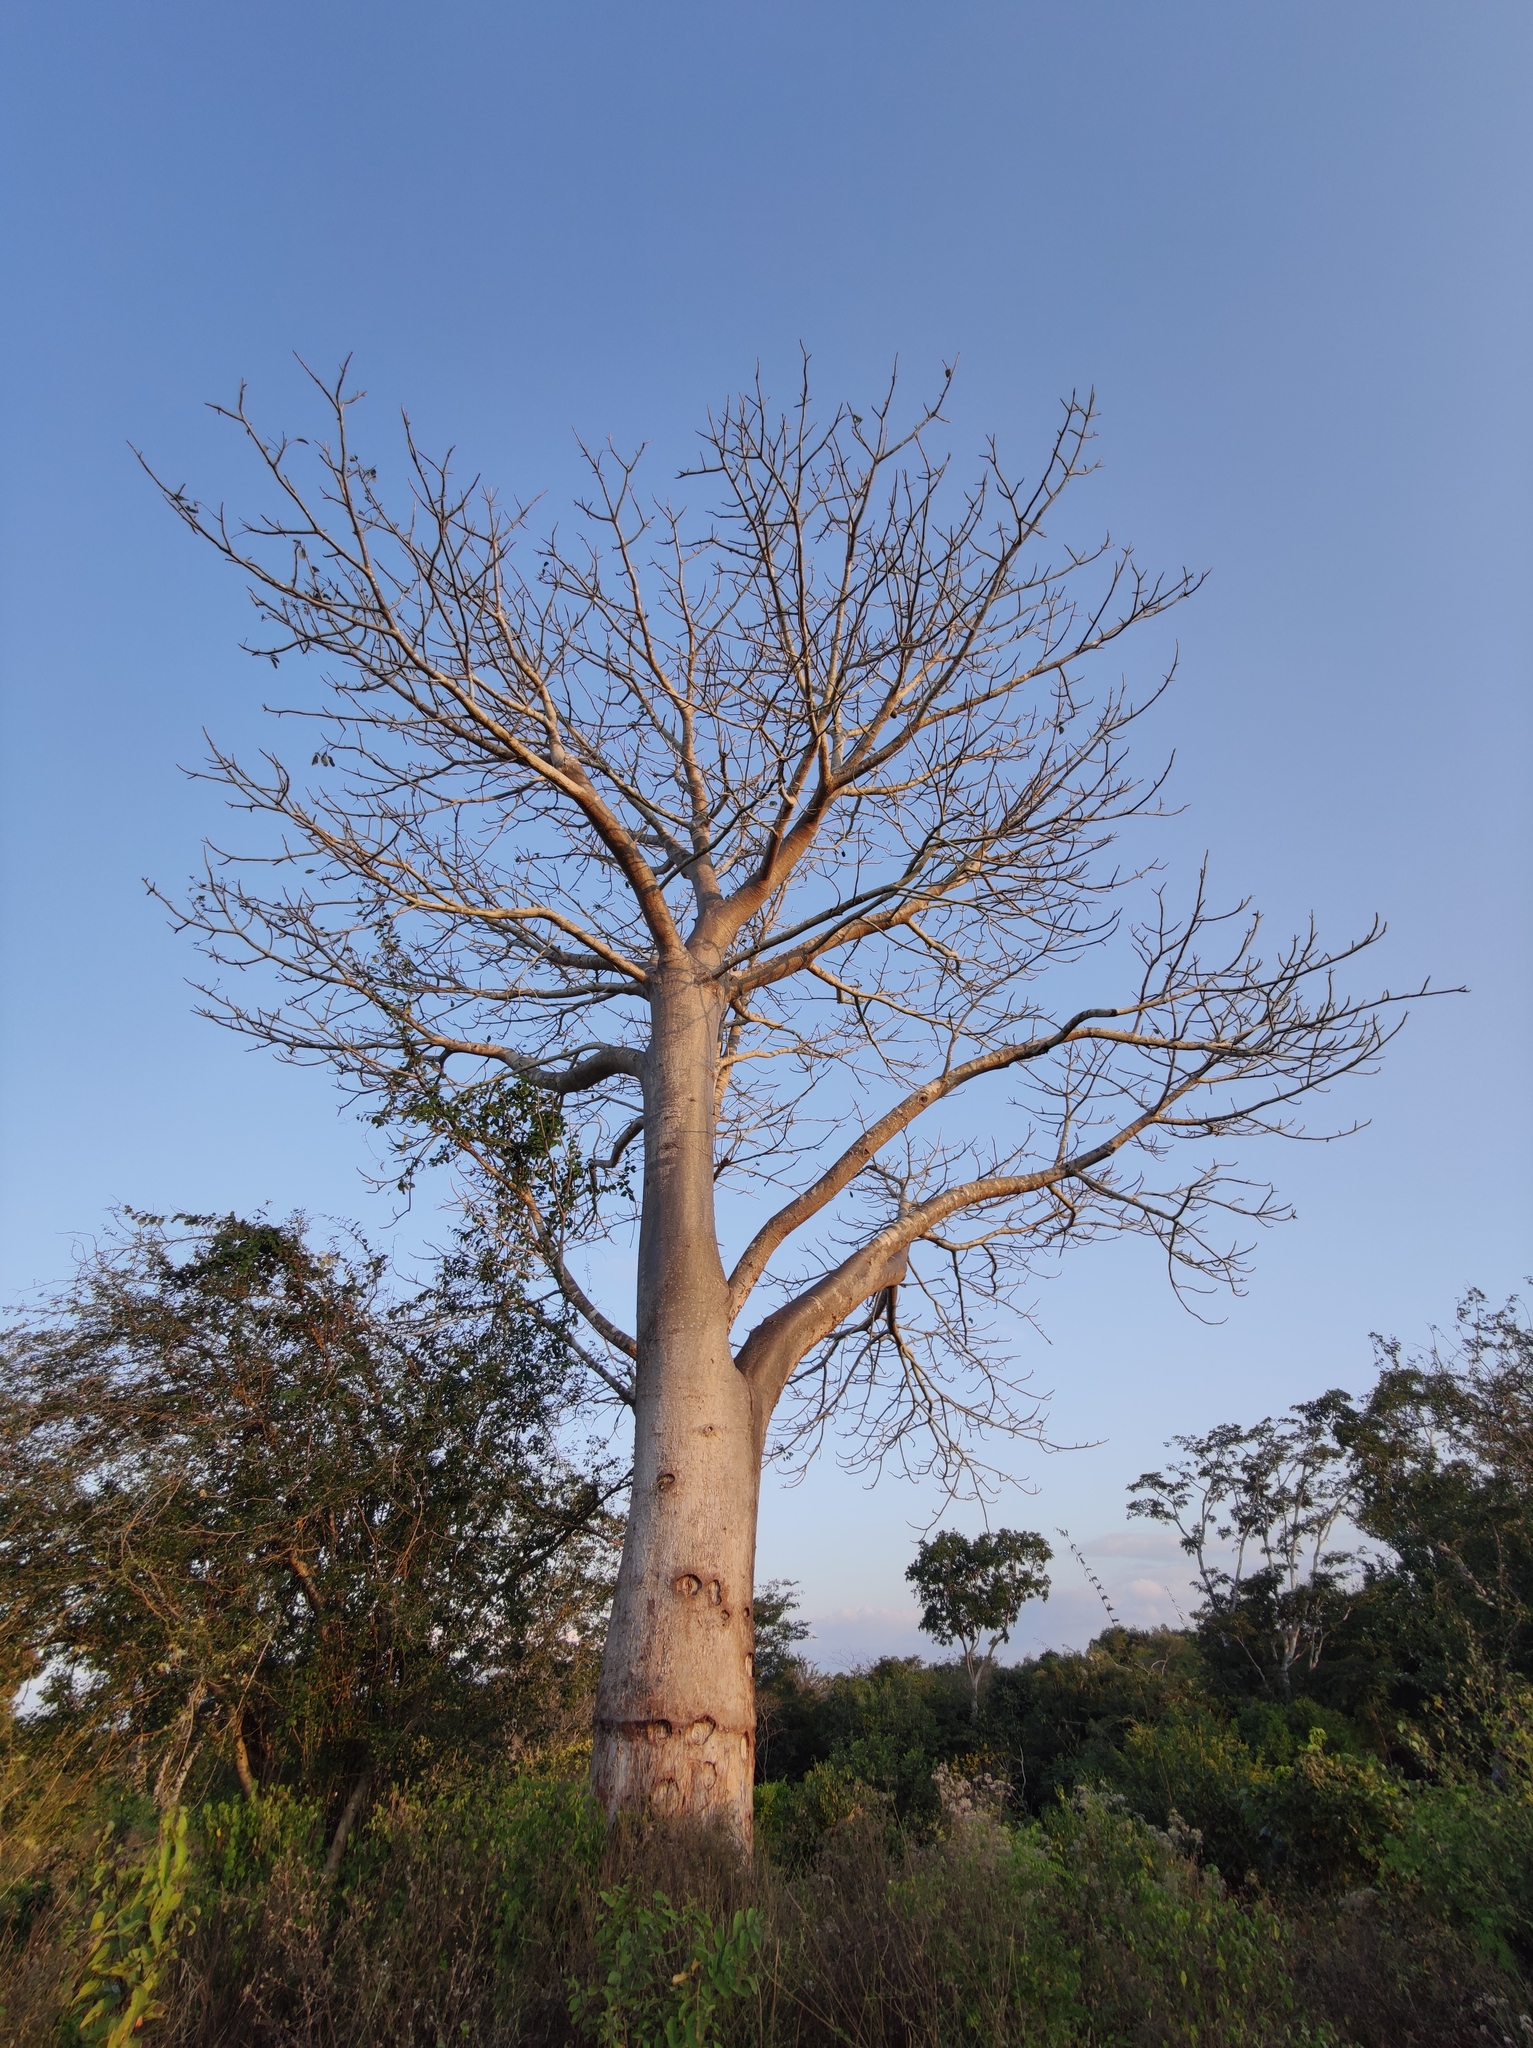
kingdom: Plantae
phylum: Tracheophyta
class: Magnoliopsida
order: Malvales
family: Malvaceae
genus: Adansonia
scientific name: Adansonia digitata
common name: Dead-rat-tree
